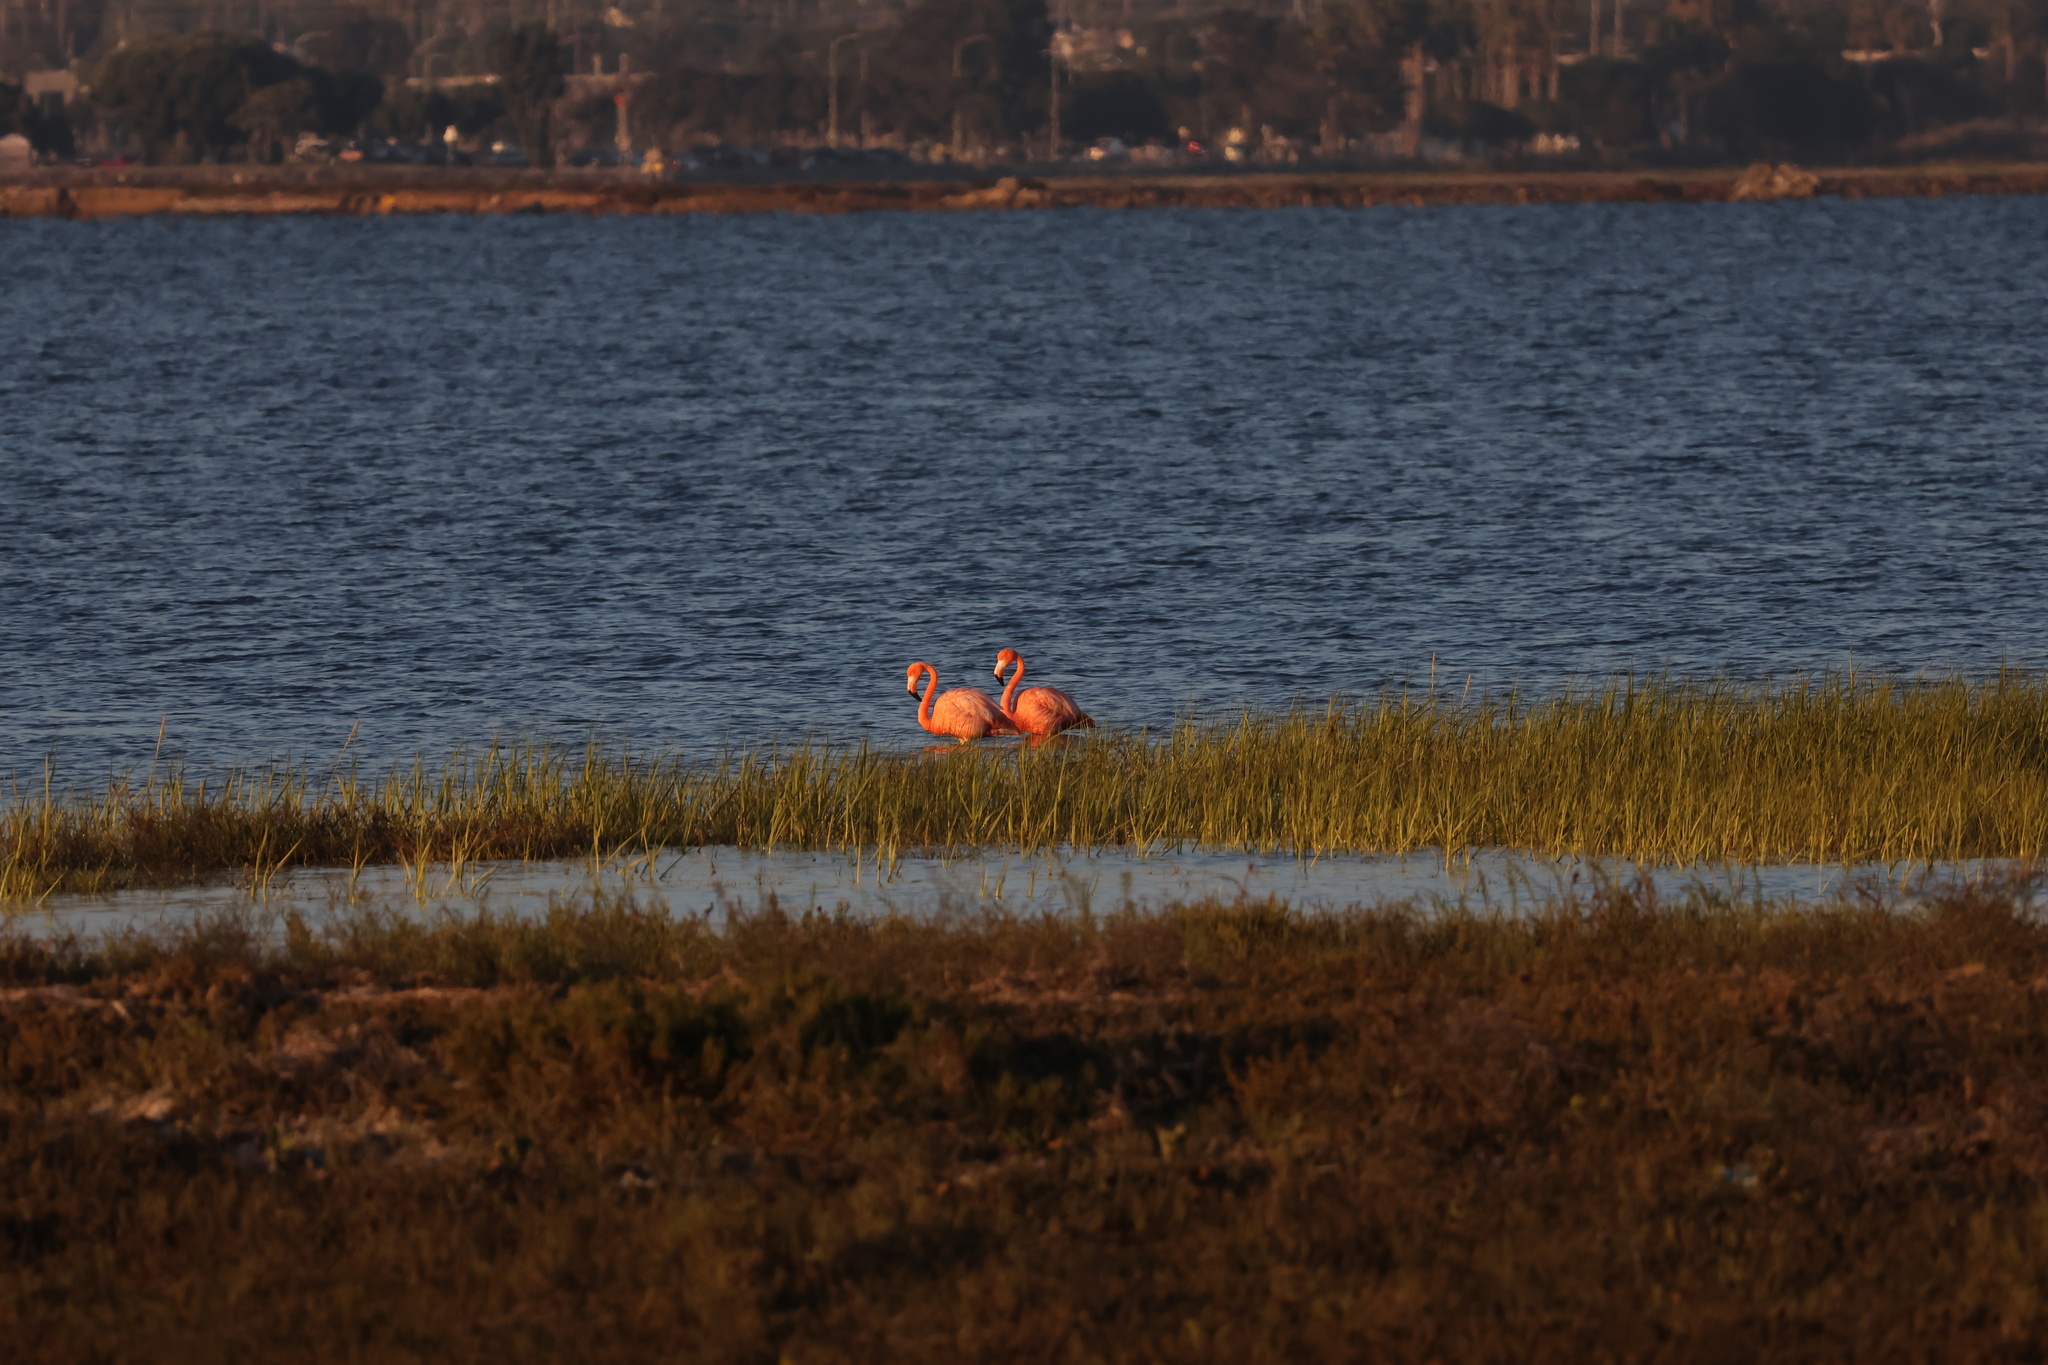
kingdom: Animalia
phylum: Chordata
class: Aves
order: Phoenicopteriformes
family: Phoenicopteridae
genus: Phoenicopterus
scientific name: Phoenicopterus ruber
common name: American flamingo
